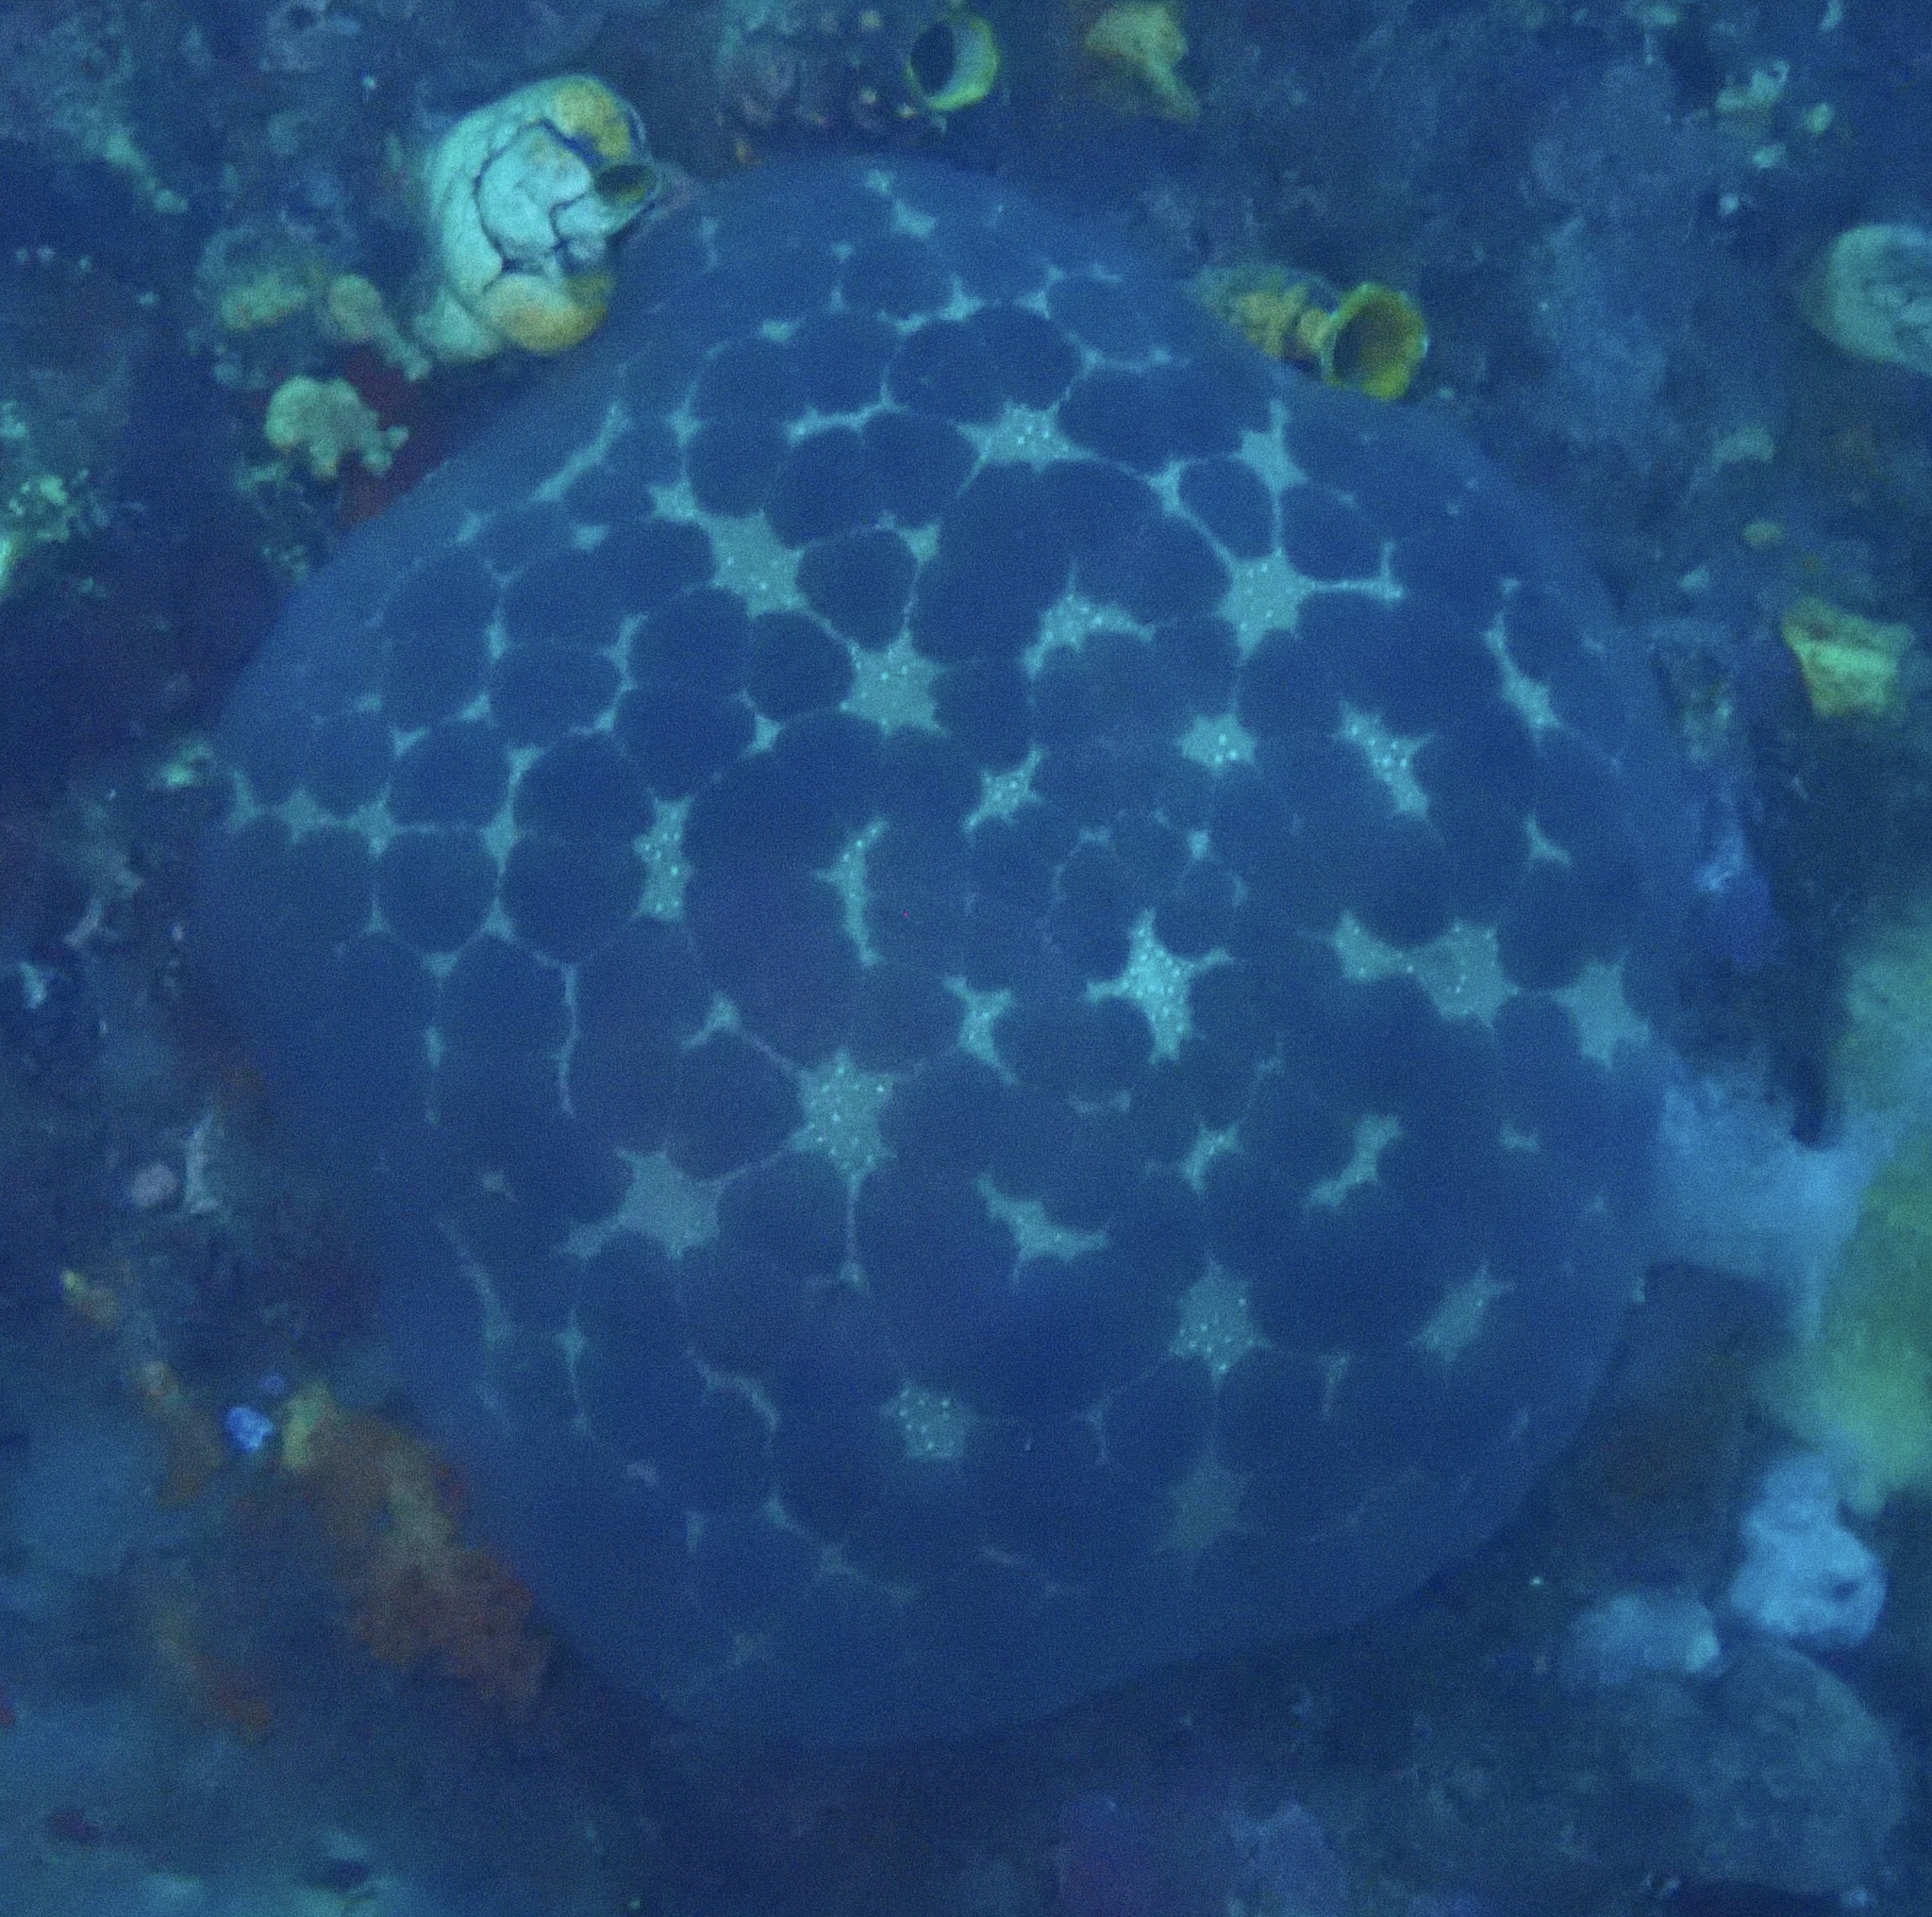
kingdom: Animalia
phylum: Echinodermata
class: Asteroidea
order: Valvatida
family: Oreasteridae
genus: Culcita
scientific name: Culcita novaeguineae
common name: Cushion star
